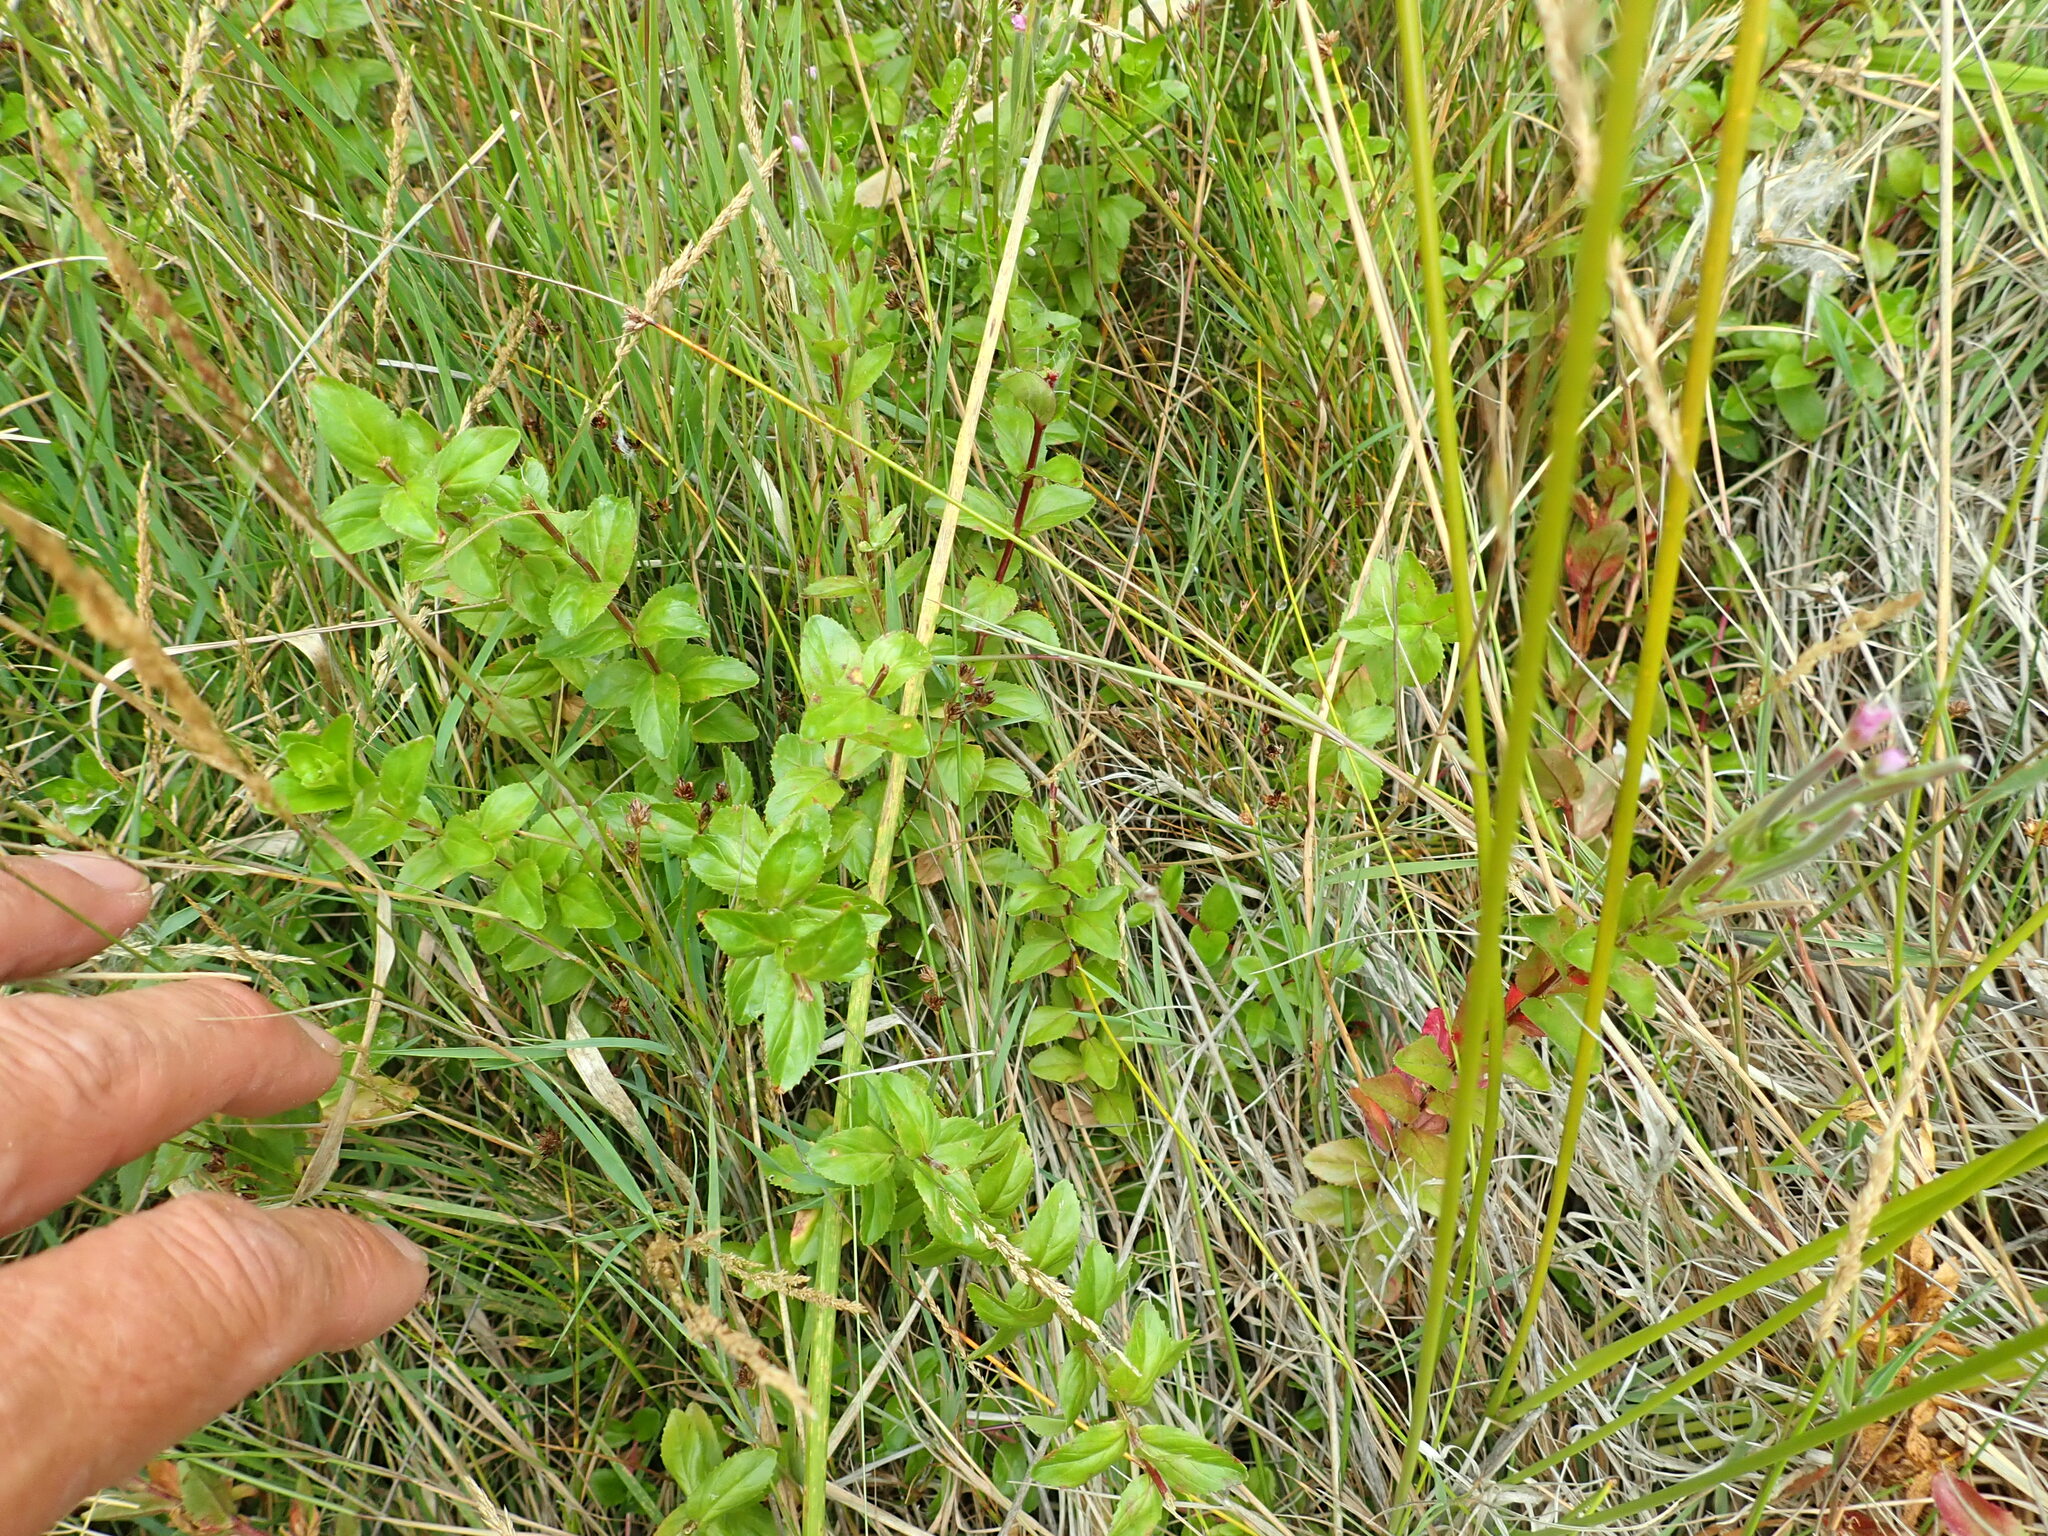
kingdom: Plantae
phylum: Tracheophyta
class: Magnoliopsida
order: Myrtales
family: Onagraceae
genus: Epilobium
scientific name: Epilobium billardiereanum
